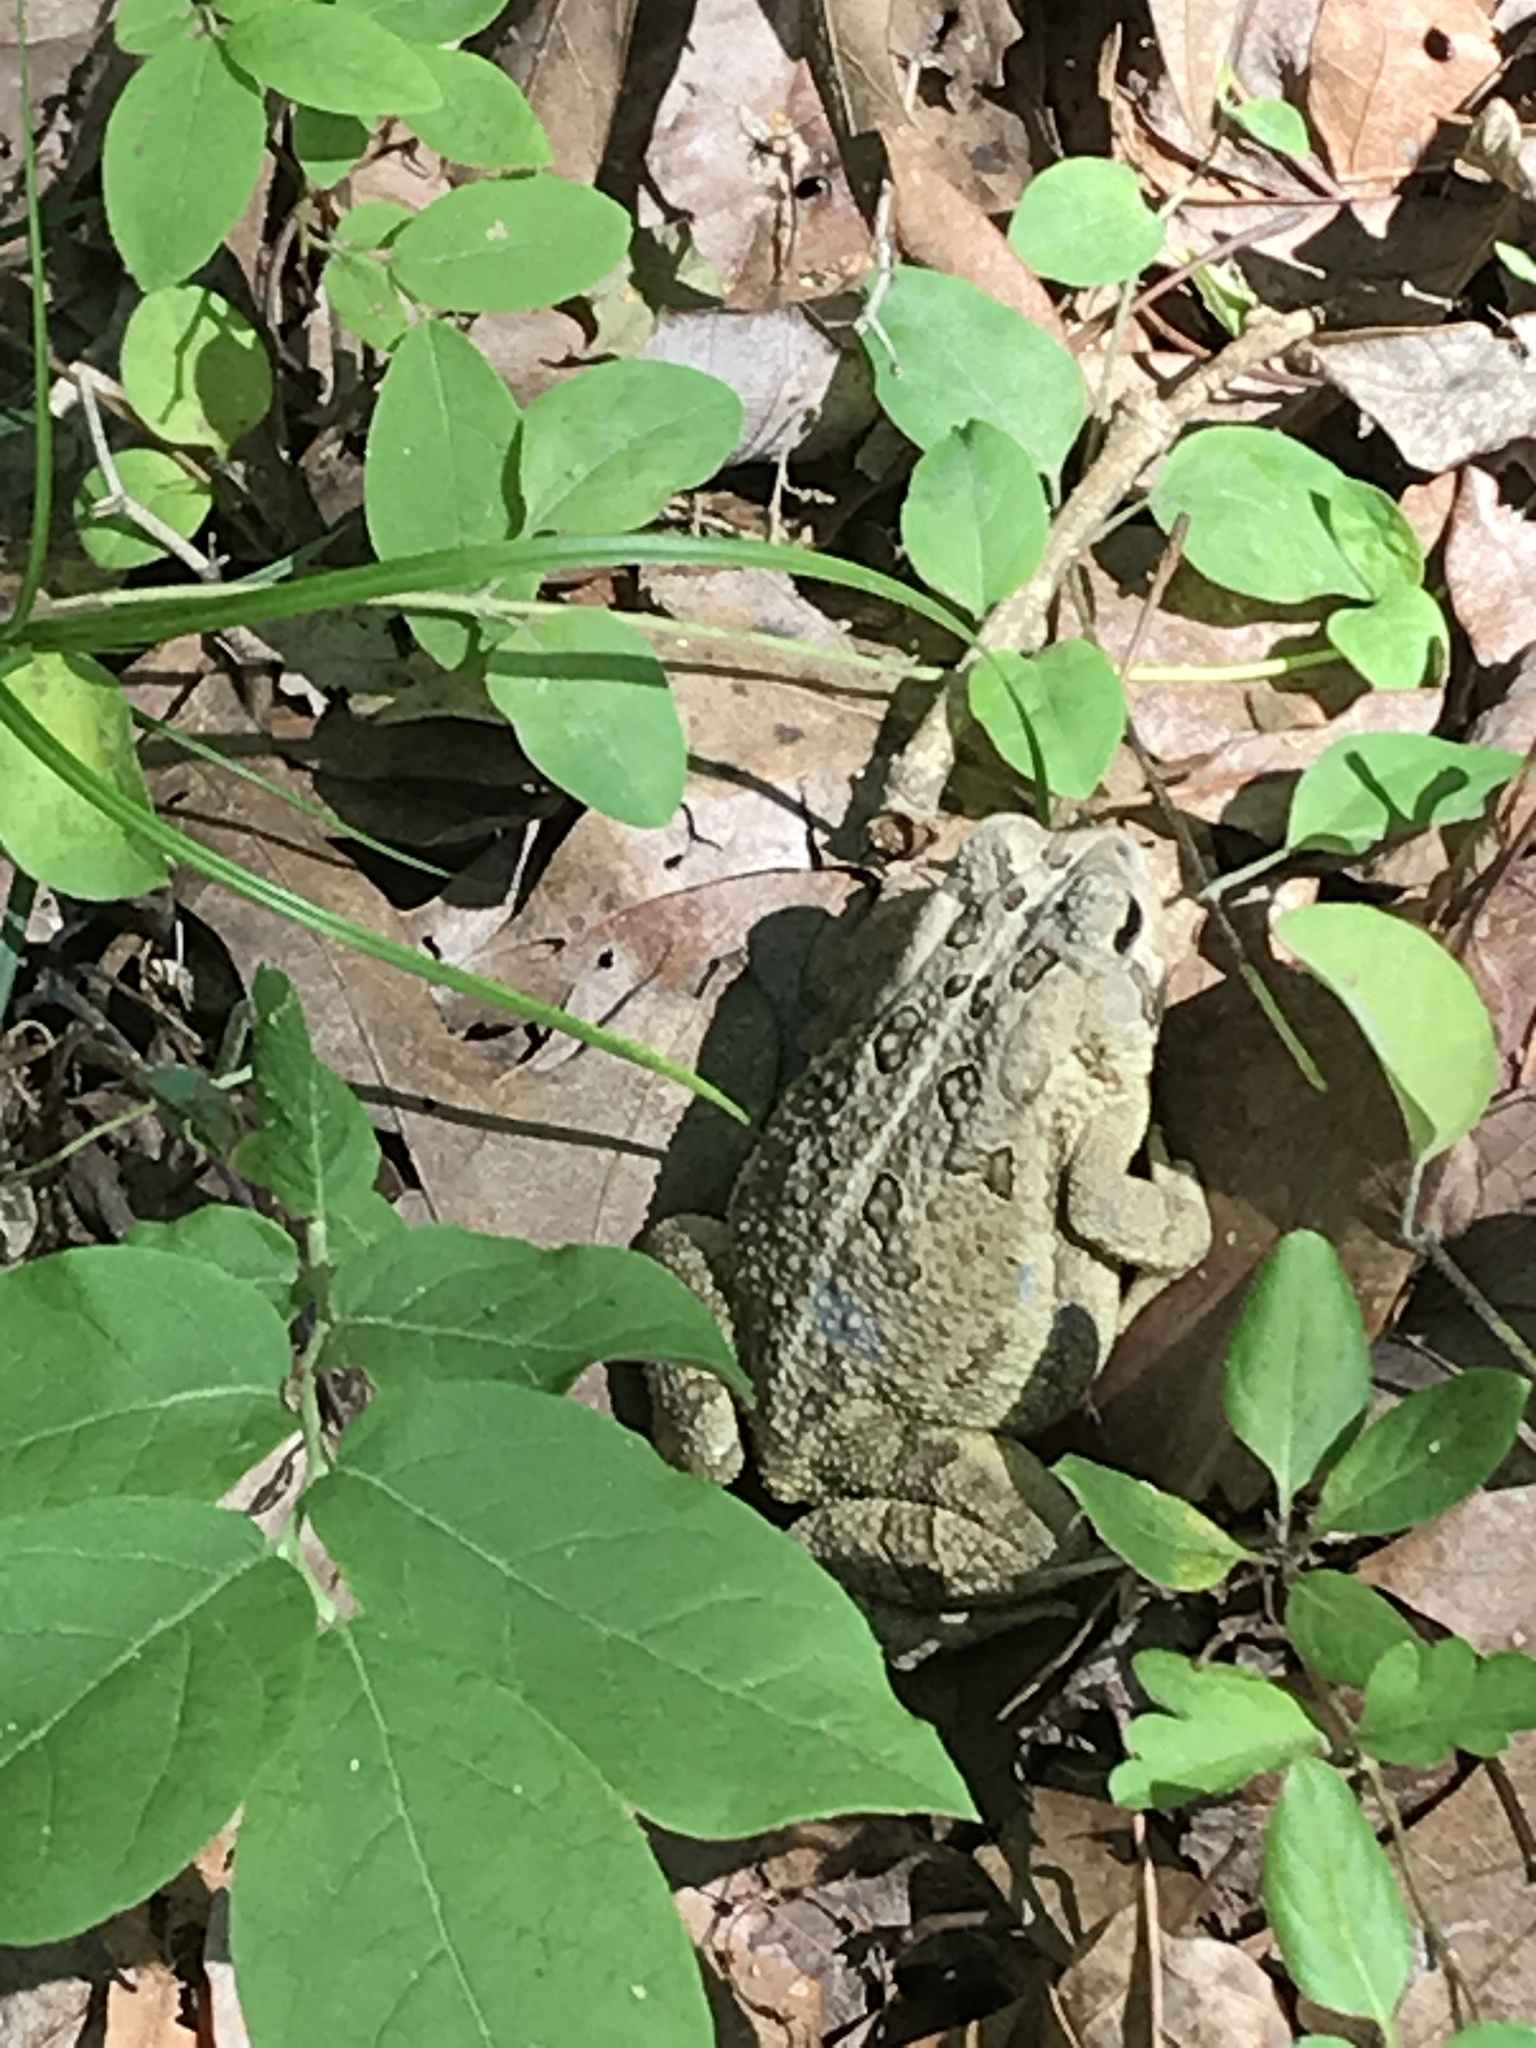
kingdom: Animalia
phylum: Chordata
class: Amphibia
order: Anura
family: Bufonidae
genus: Anaxyrus
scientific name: Anaxyrus fowleri
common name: Fowler's toad
